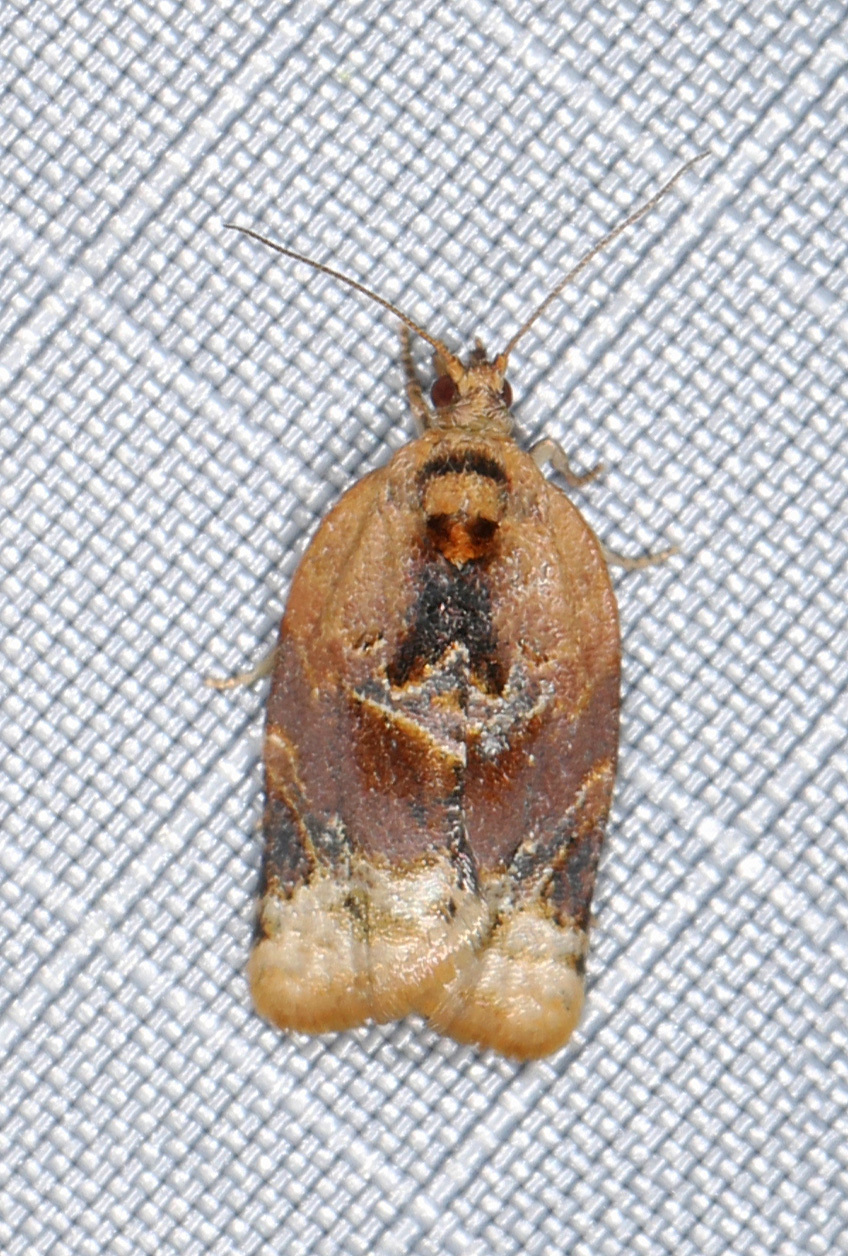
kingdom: Animalia
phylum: Arthropoda
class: Insecta
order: Lepidoptera
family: Tortricidae
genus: Argyrotaenia
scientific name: Argyrotaenia velutinana
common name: Red-banded leafroller moth
